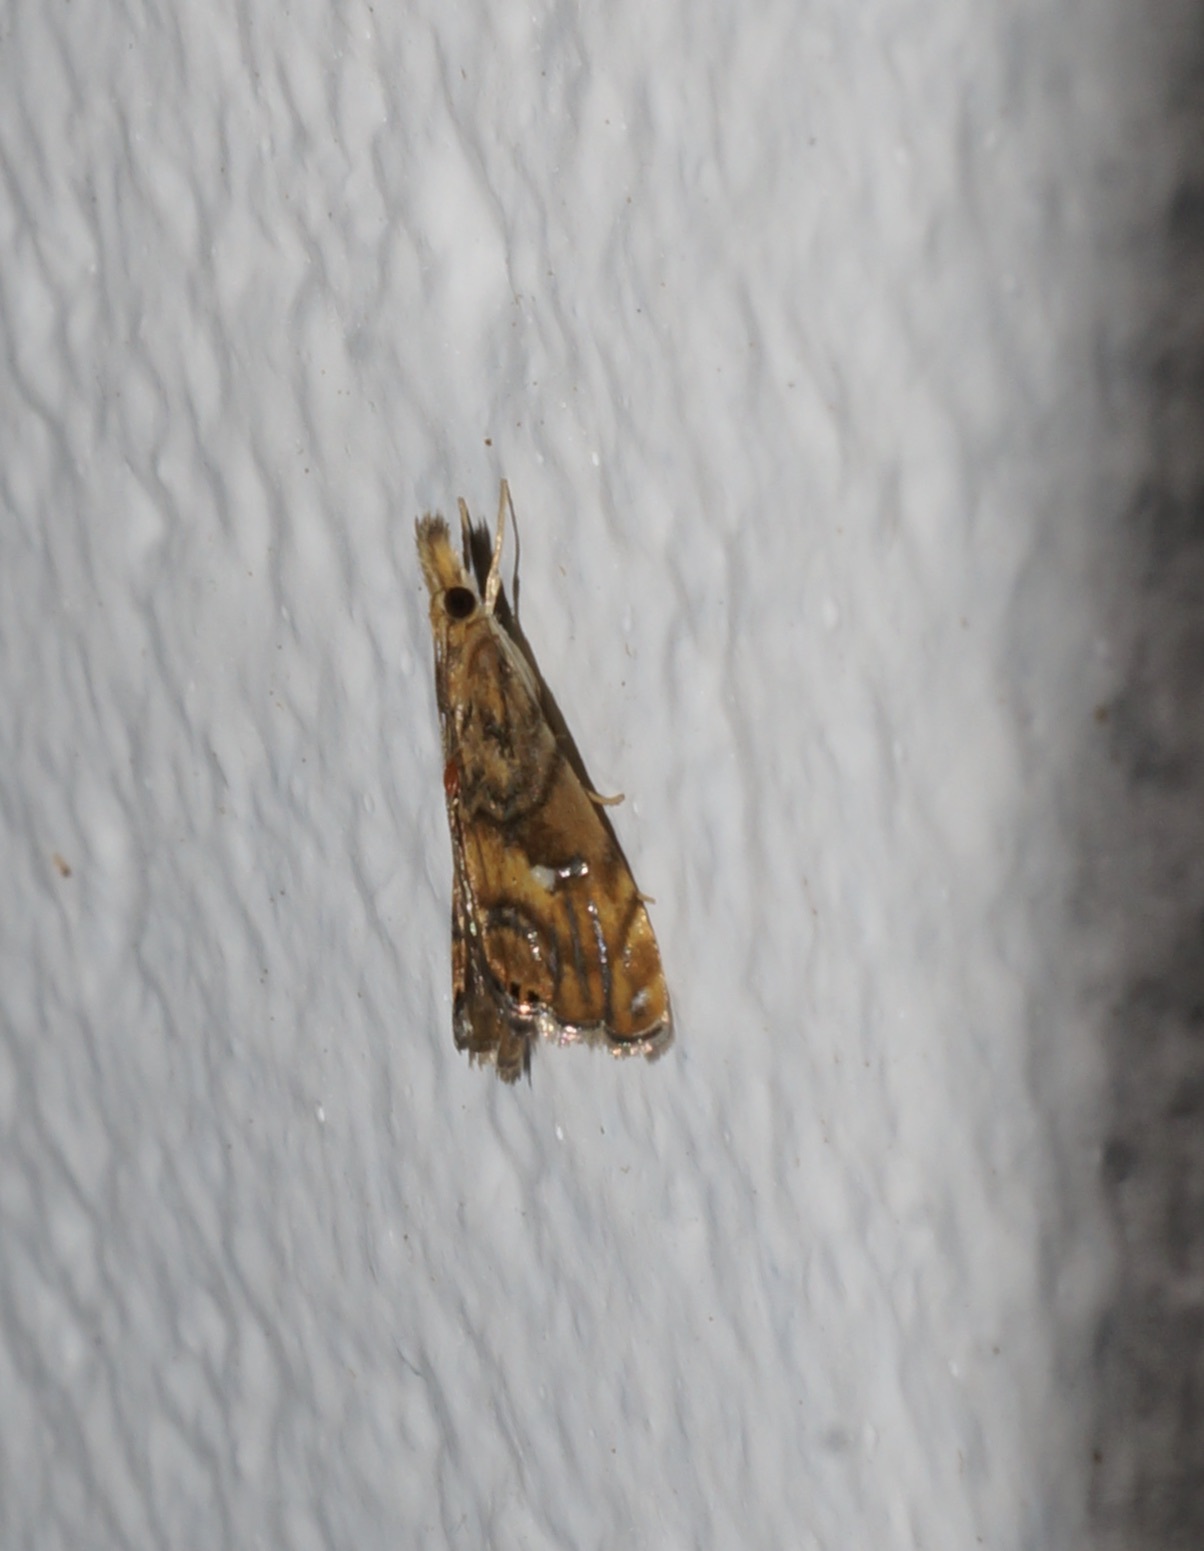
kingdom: Animalia
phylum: Arthropoda
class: Insecta
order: Lepidoptera
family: Crambidae
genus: Glaucocharis
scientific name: Glaucocharis chrysochyta
